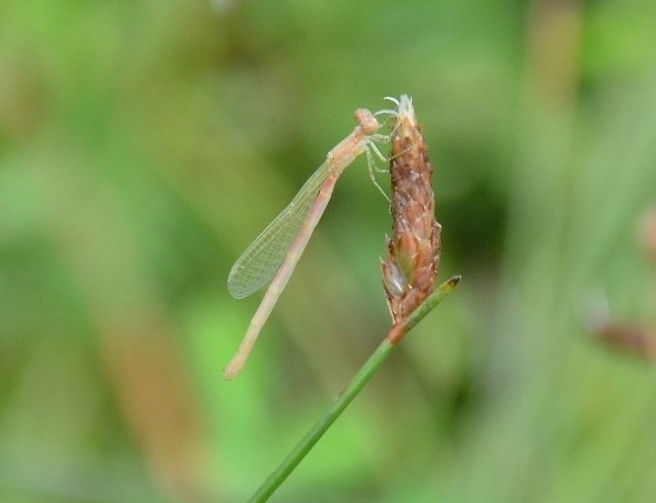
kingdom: Animalia
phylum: Arthropoda
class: Insecta
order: Odonata
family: Coenagrionidae
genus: Agriocnemis
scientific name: Agriocnemis pygmaea
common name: Pygmy wisp
